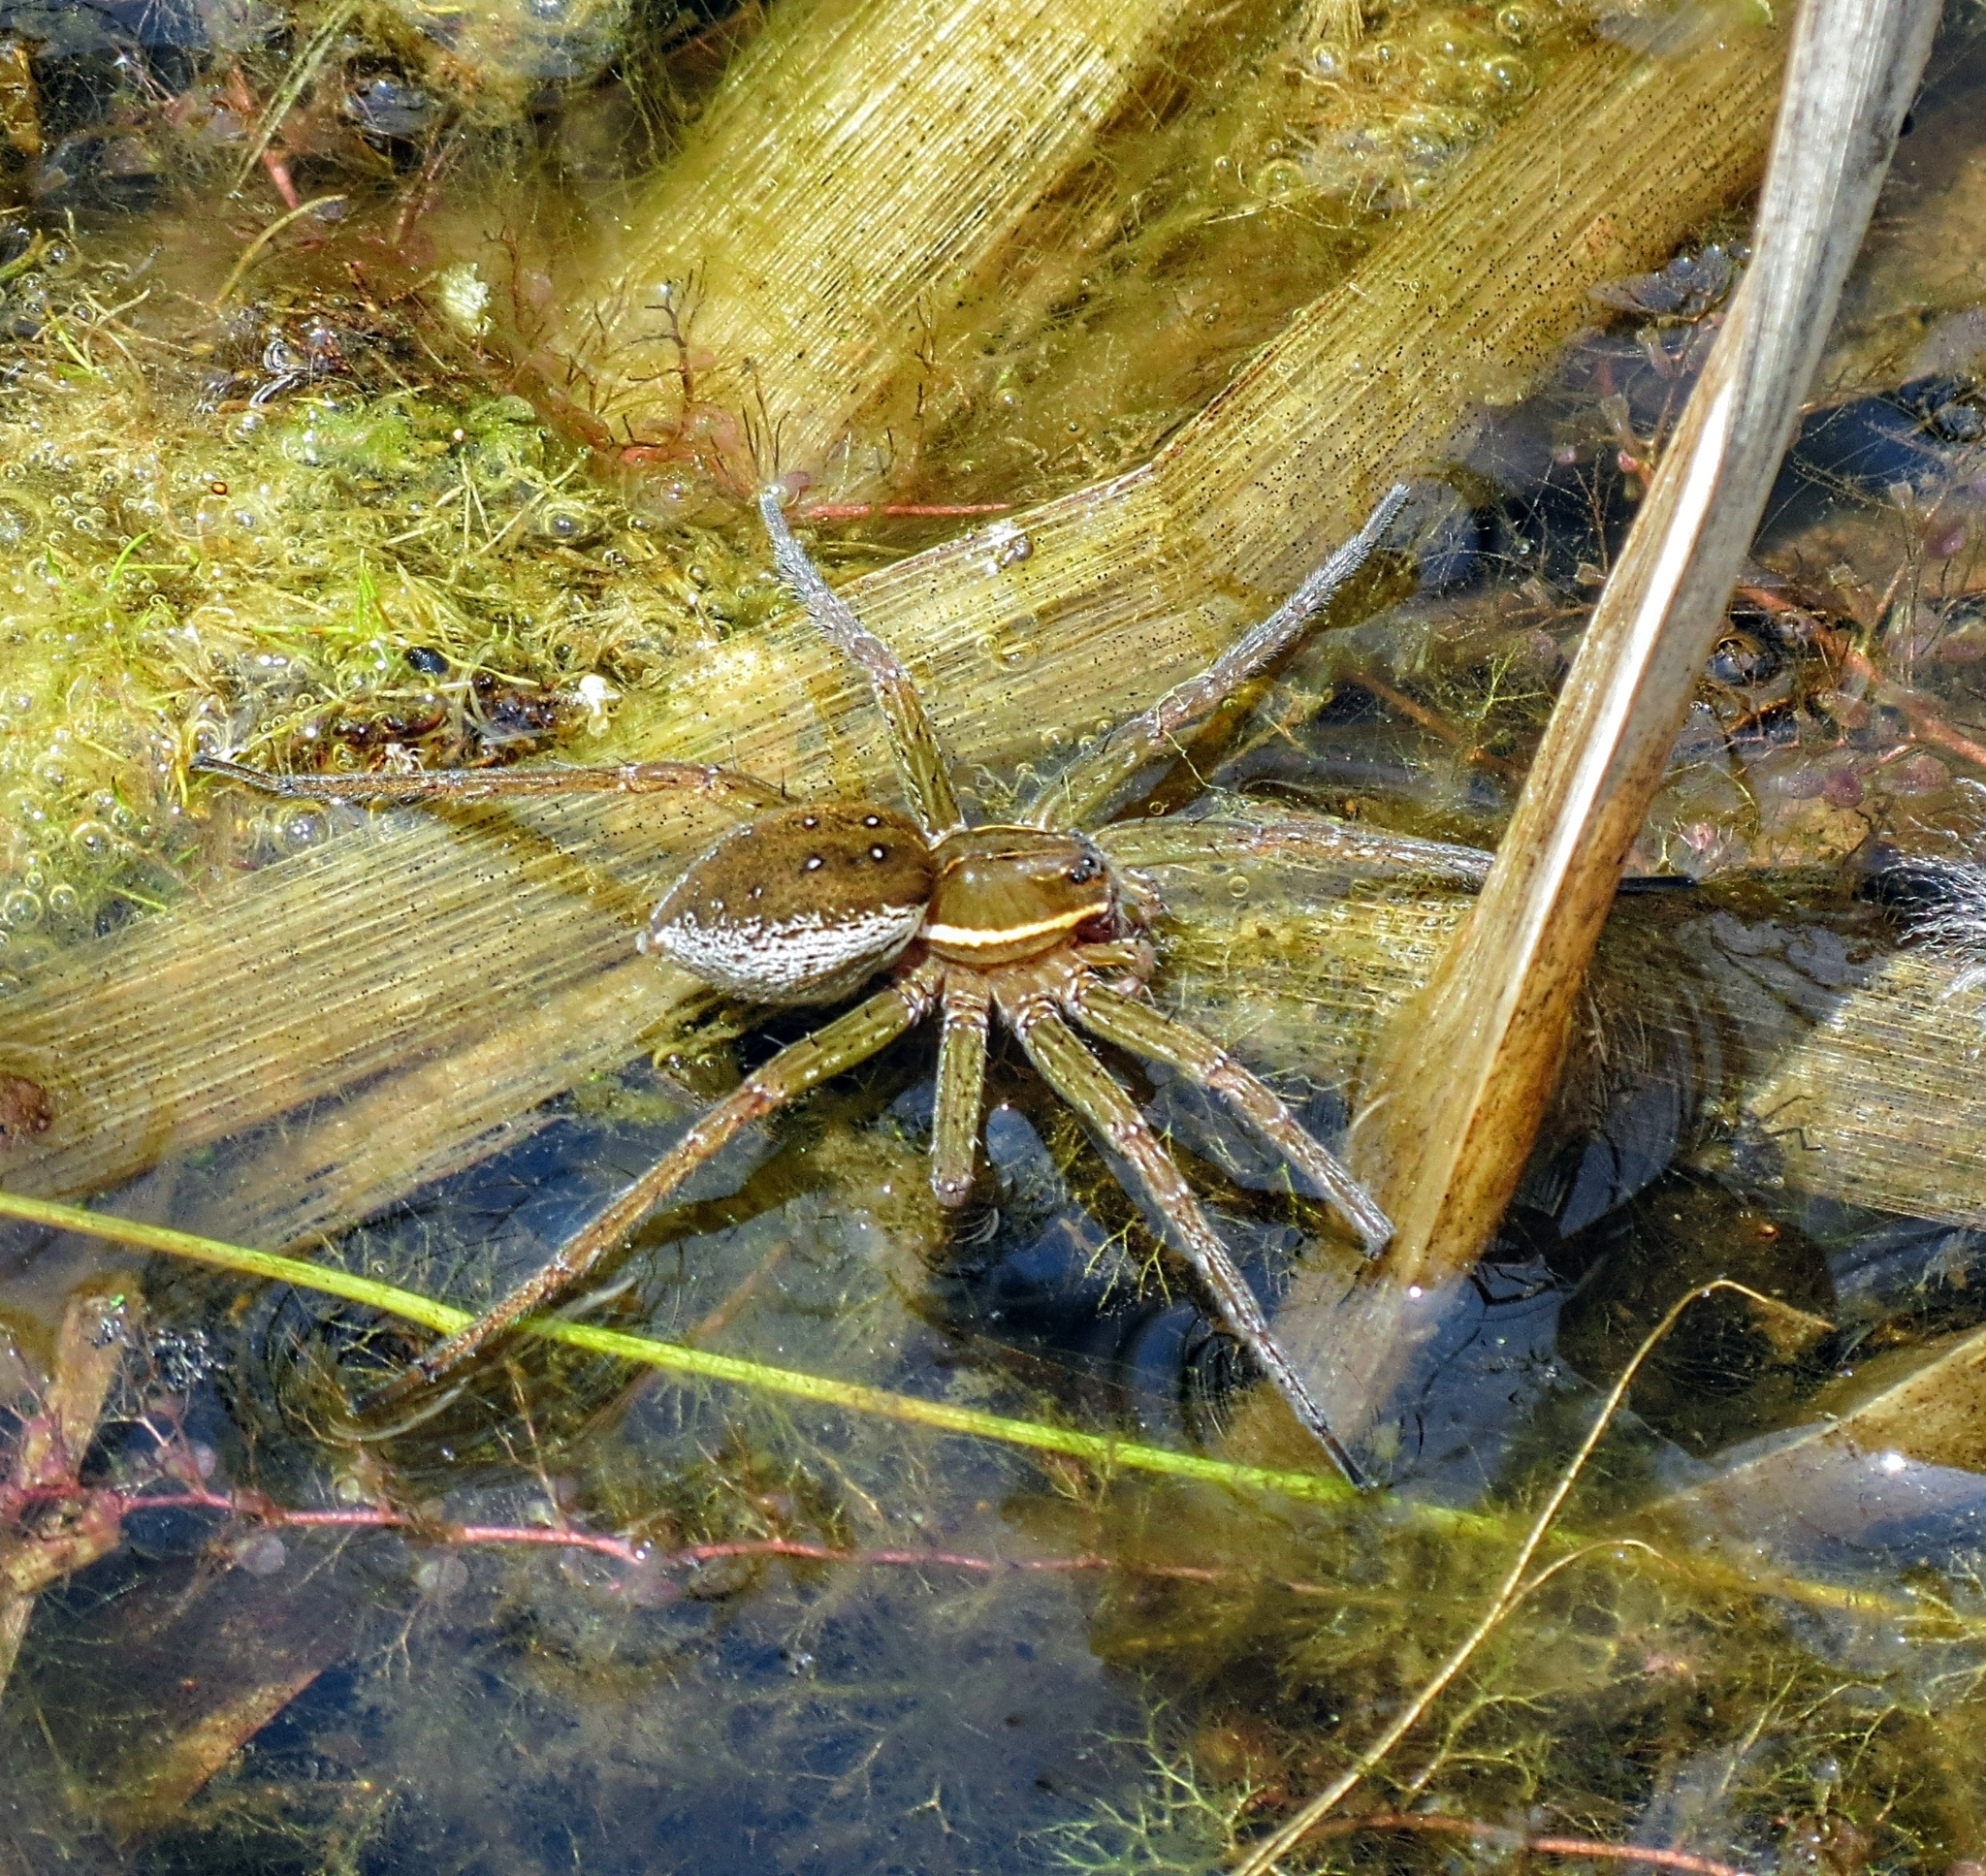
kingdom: Animalia
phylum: Arthropoda
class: Arachnida
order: Araneae
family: Pisauridae
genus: Dolomedes
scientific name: Dolomedes triton
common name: Six-spotted fishing spider
